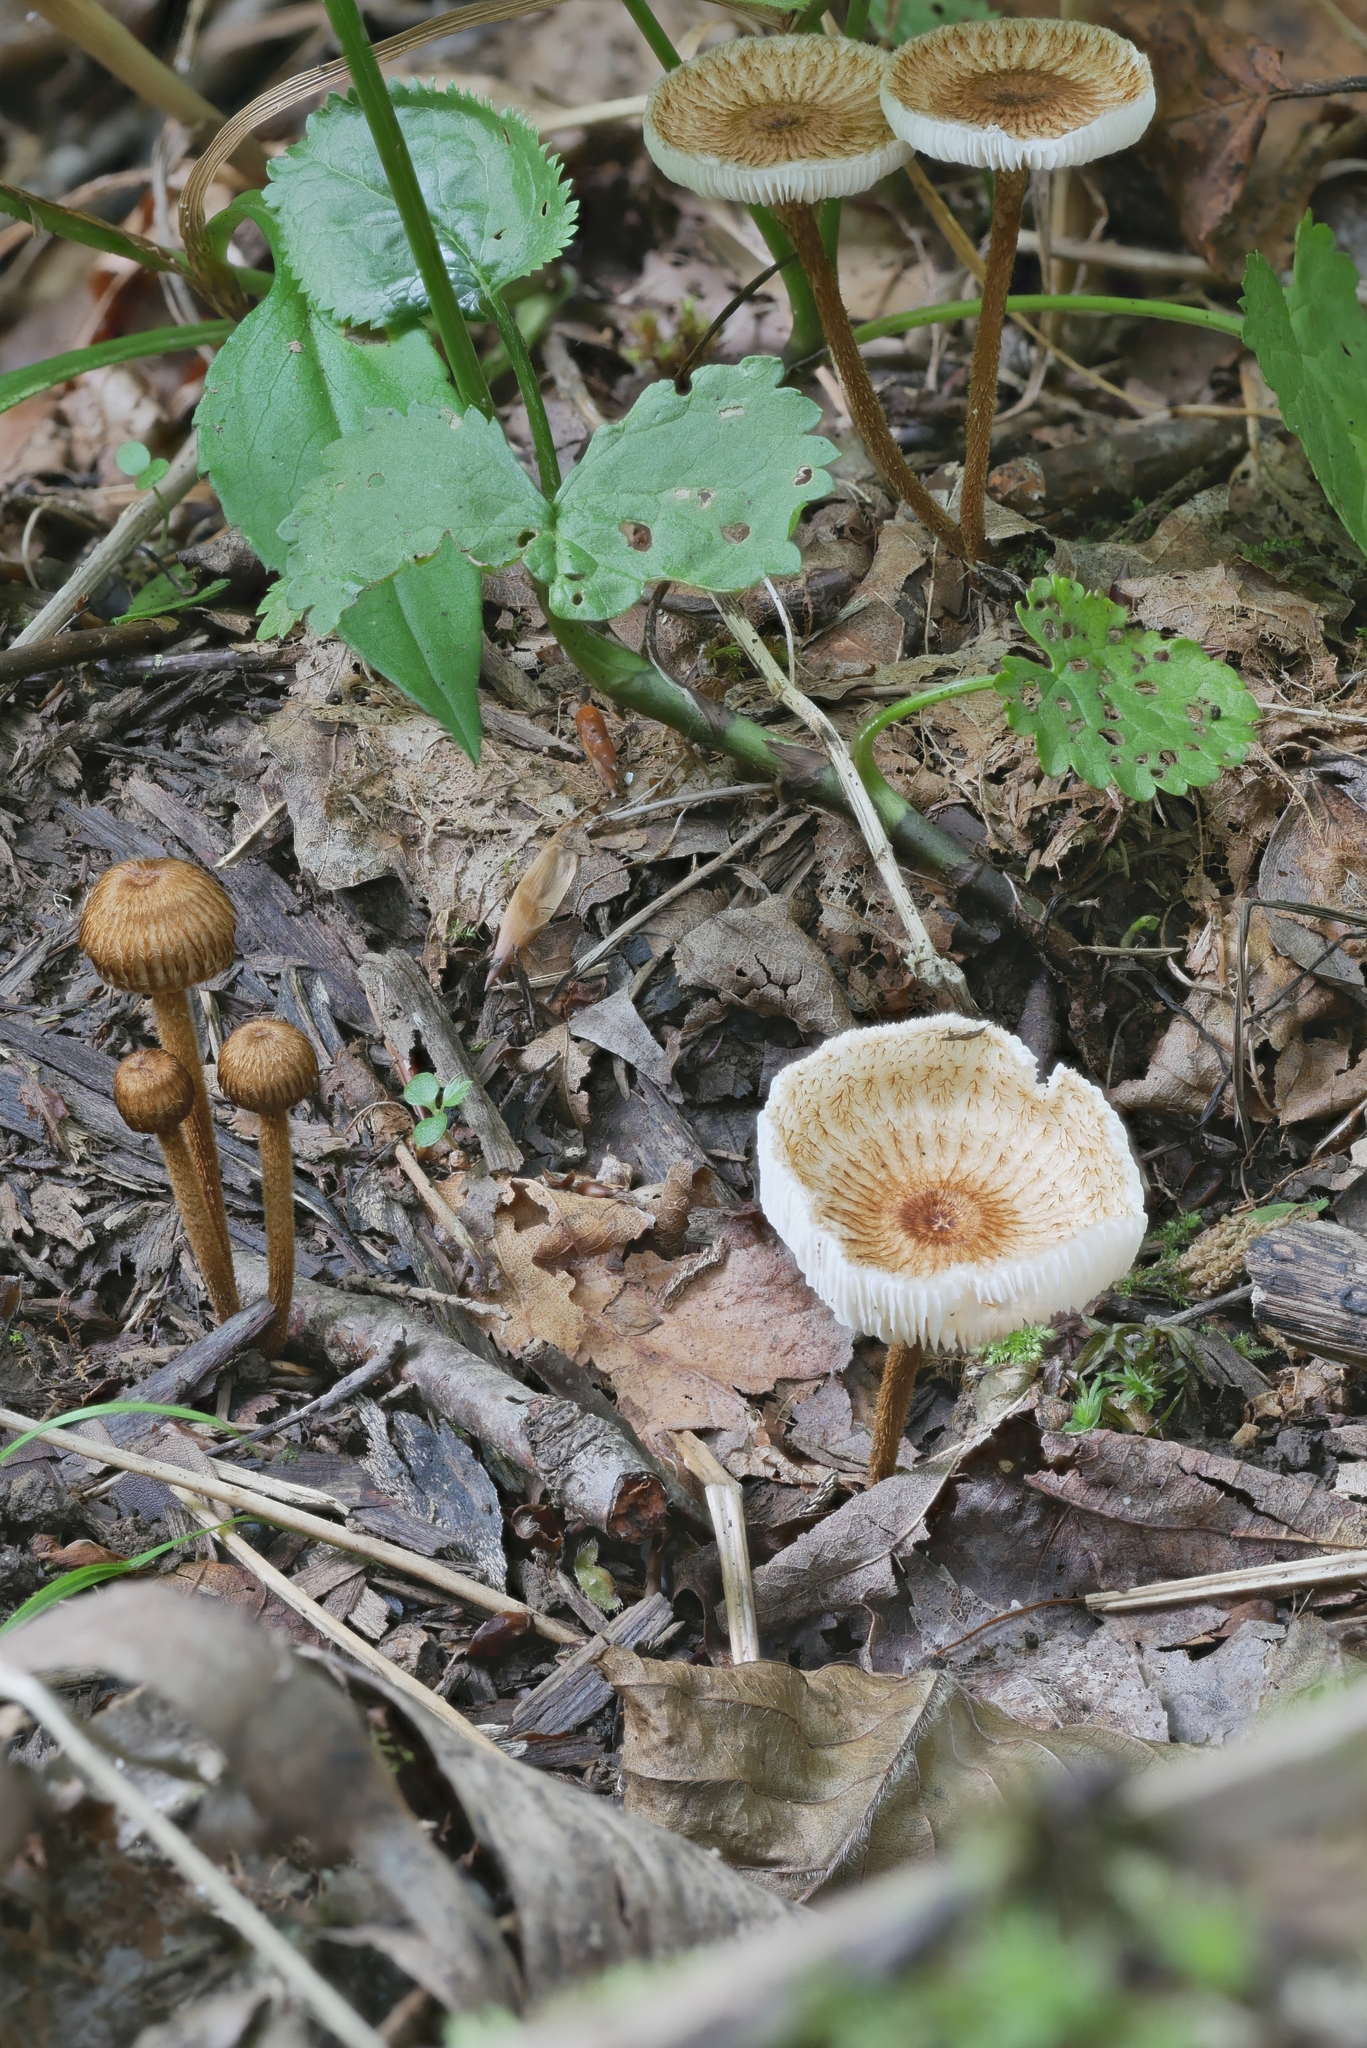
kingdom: Fungi
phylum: Basidiomycota
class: Agaricomycetes
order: Agaricales
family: Tricholomataceae
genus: Collybia
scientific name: Collybia zonata
